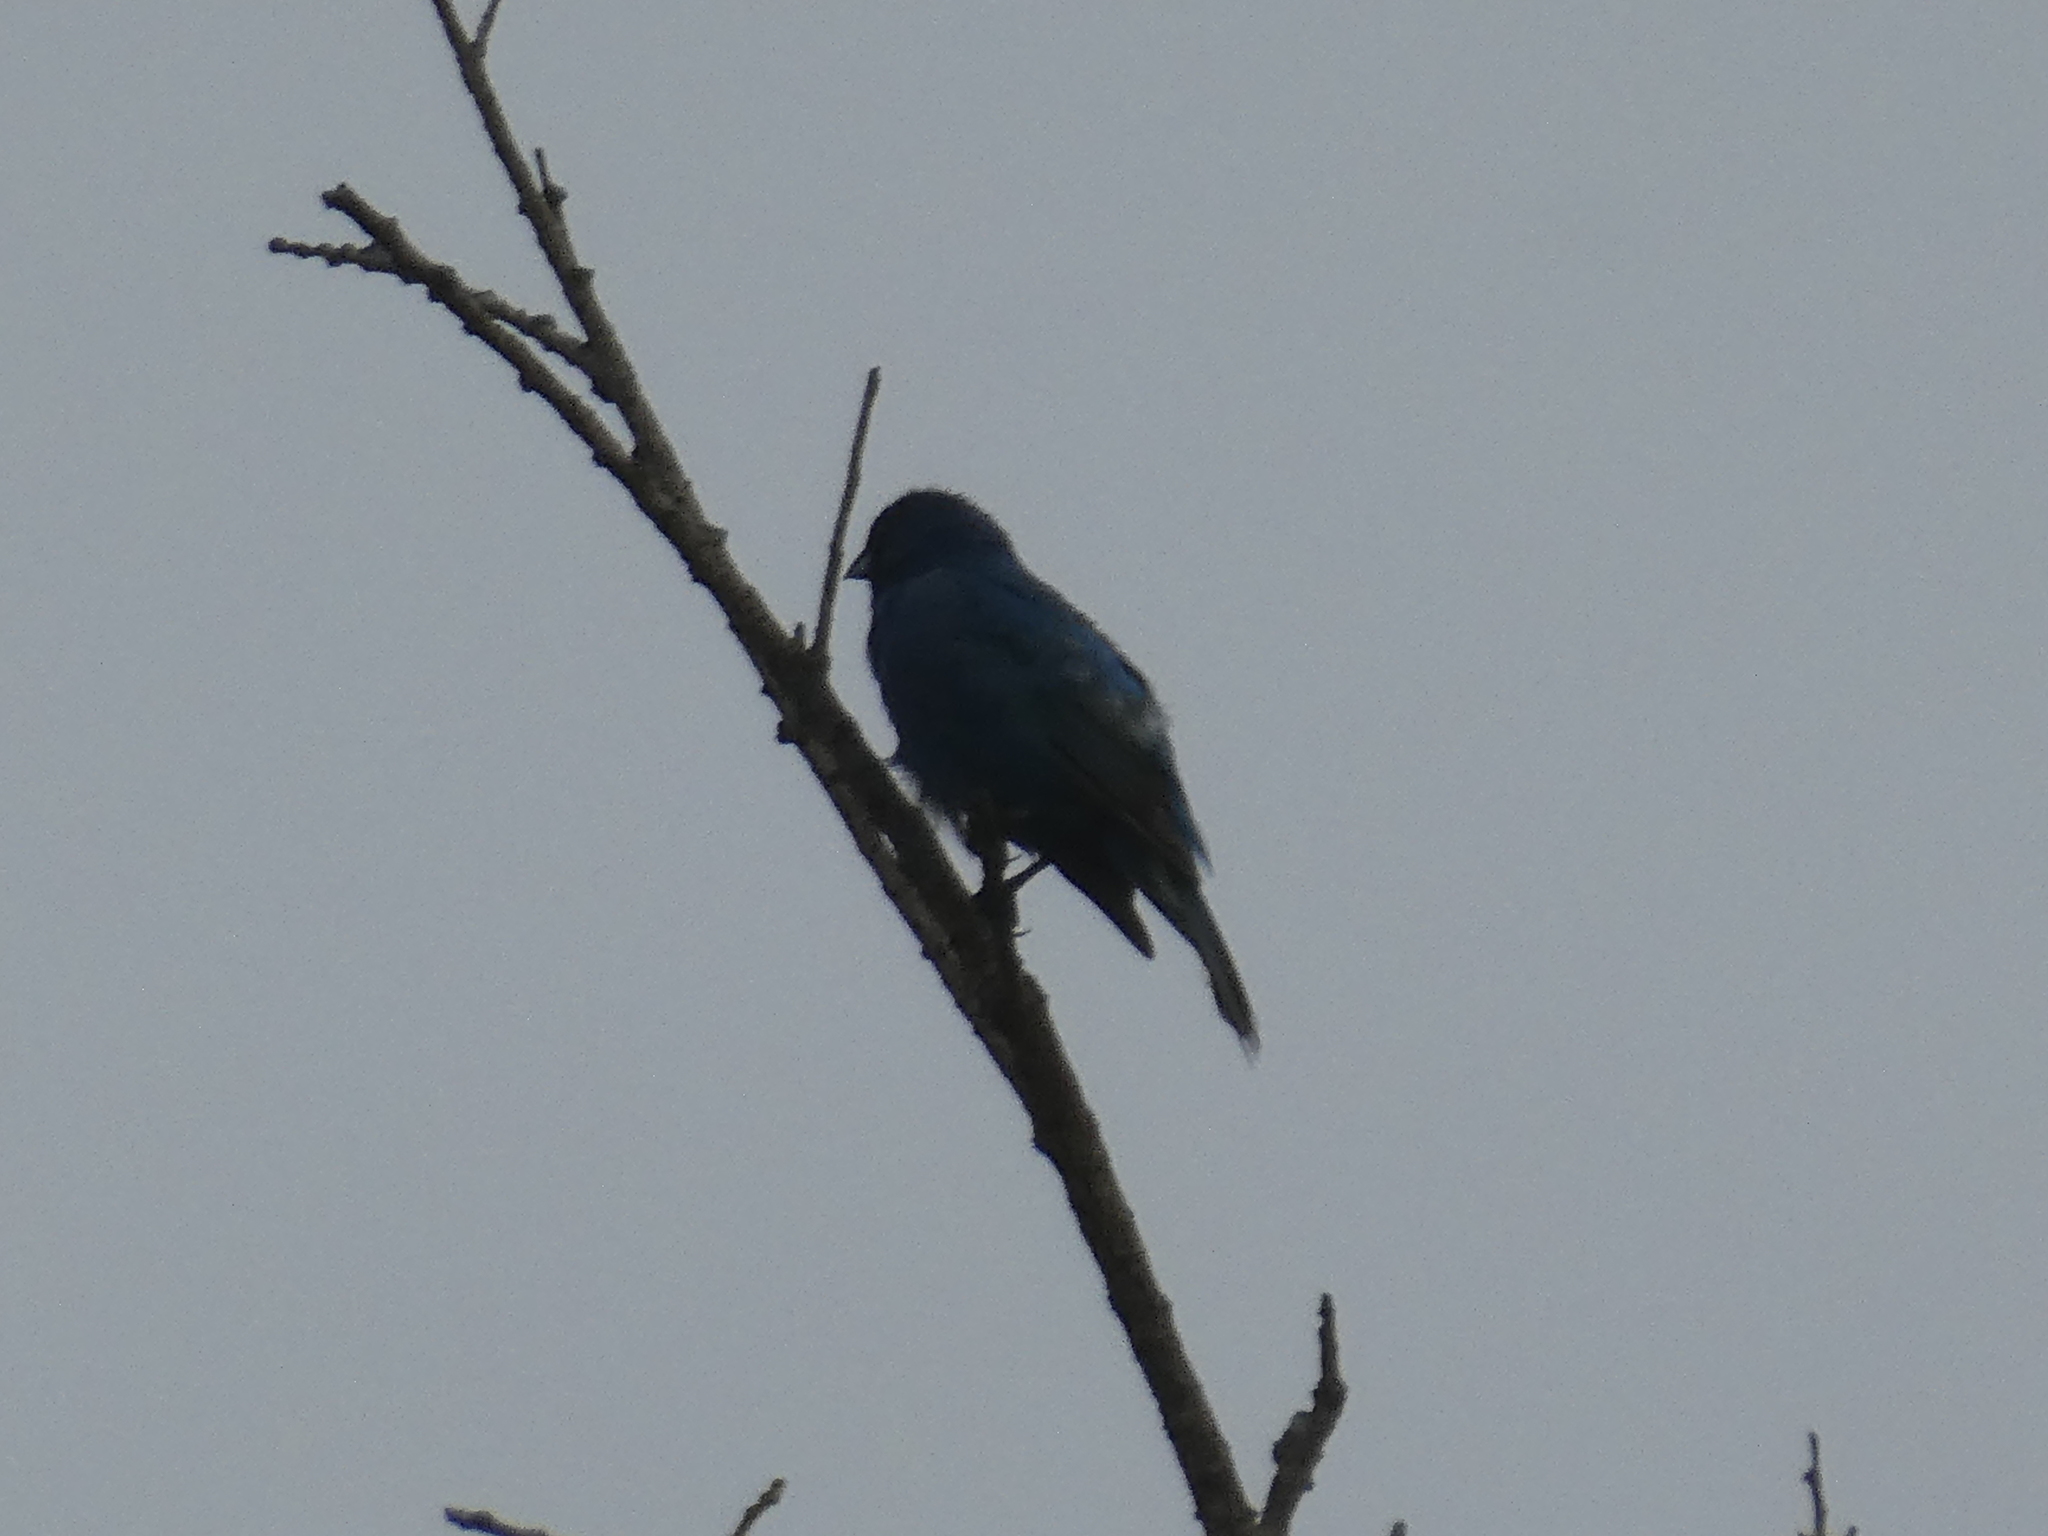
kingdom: Animalia
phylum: Chordata
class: Aves
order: Passeriformes
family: Cardinalidae
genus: Passerina
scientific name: Passerina cyanea
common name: Indigo bunting
